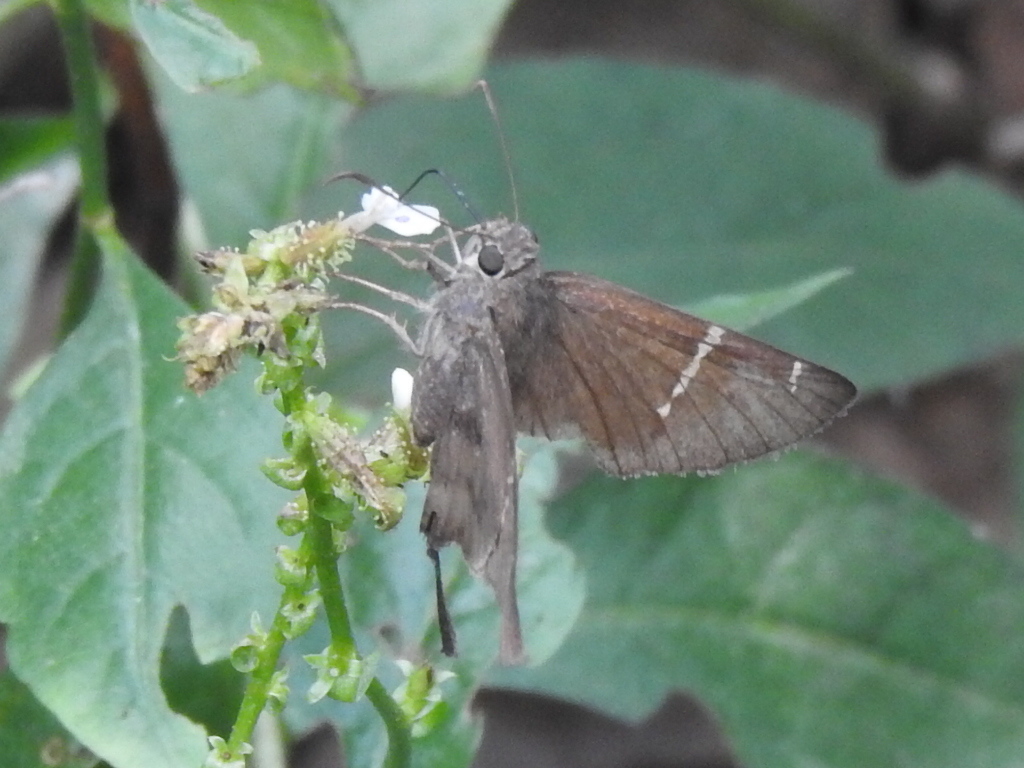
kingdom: Animalia
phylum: Arthropoda
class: Insecta
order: Lepidoptera
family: Hesperiidae
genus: Urbanus
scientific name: Urbanus procne
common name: Brown longtail
